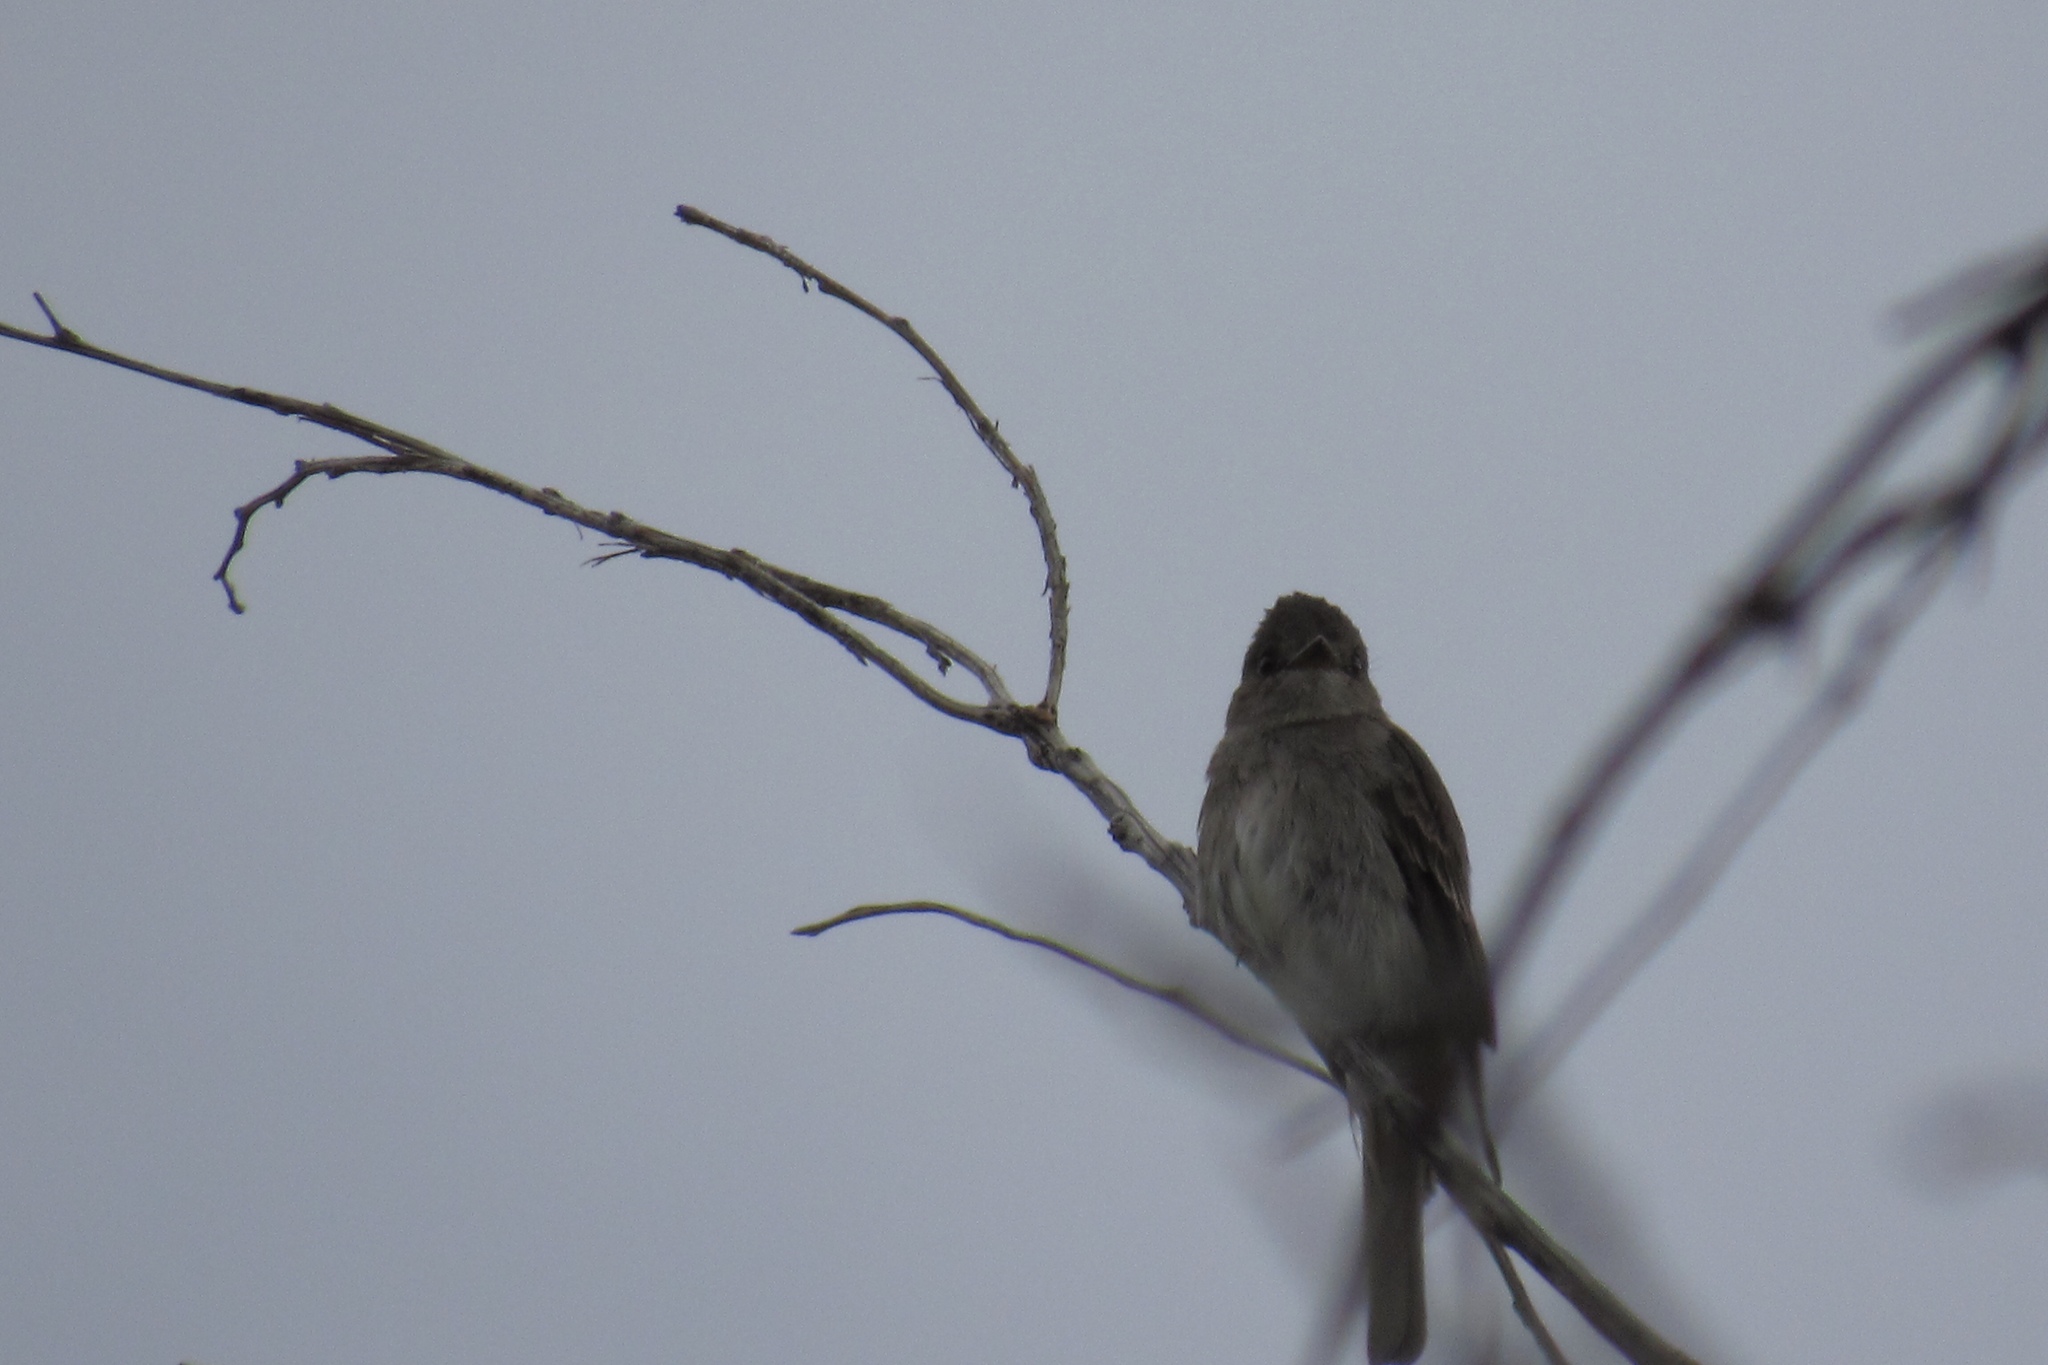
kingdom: Animalia
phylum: Chordata
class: Aves
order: Passeriformes
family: Tyrannidae
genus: Contopus
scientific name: Contopus sordidulus
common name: Western wood-pewee
